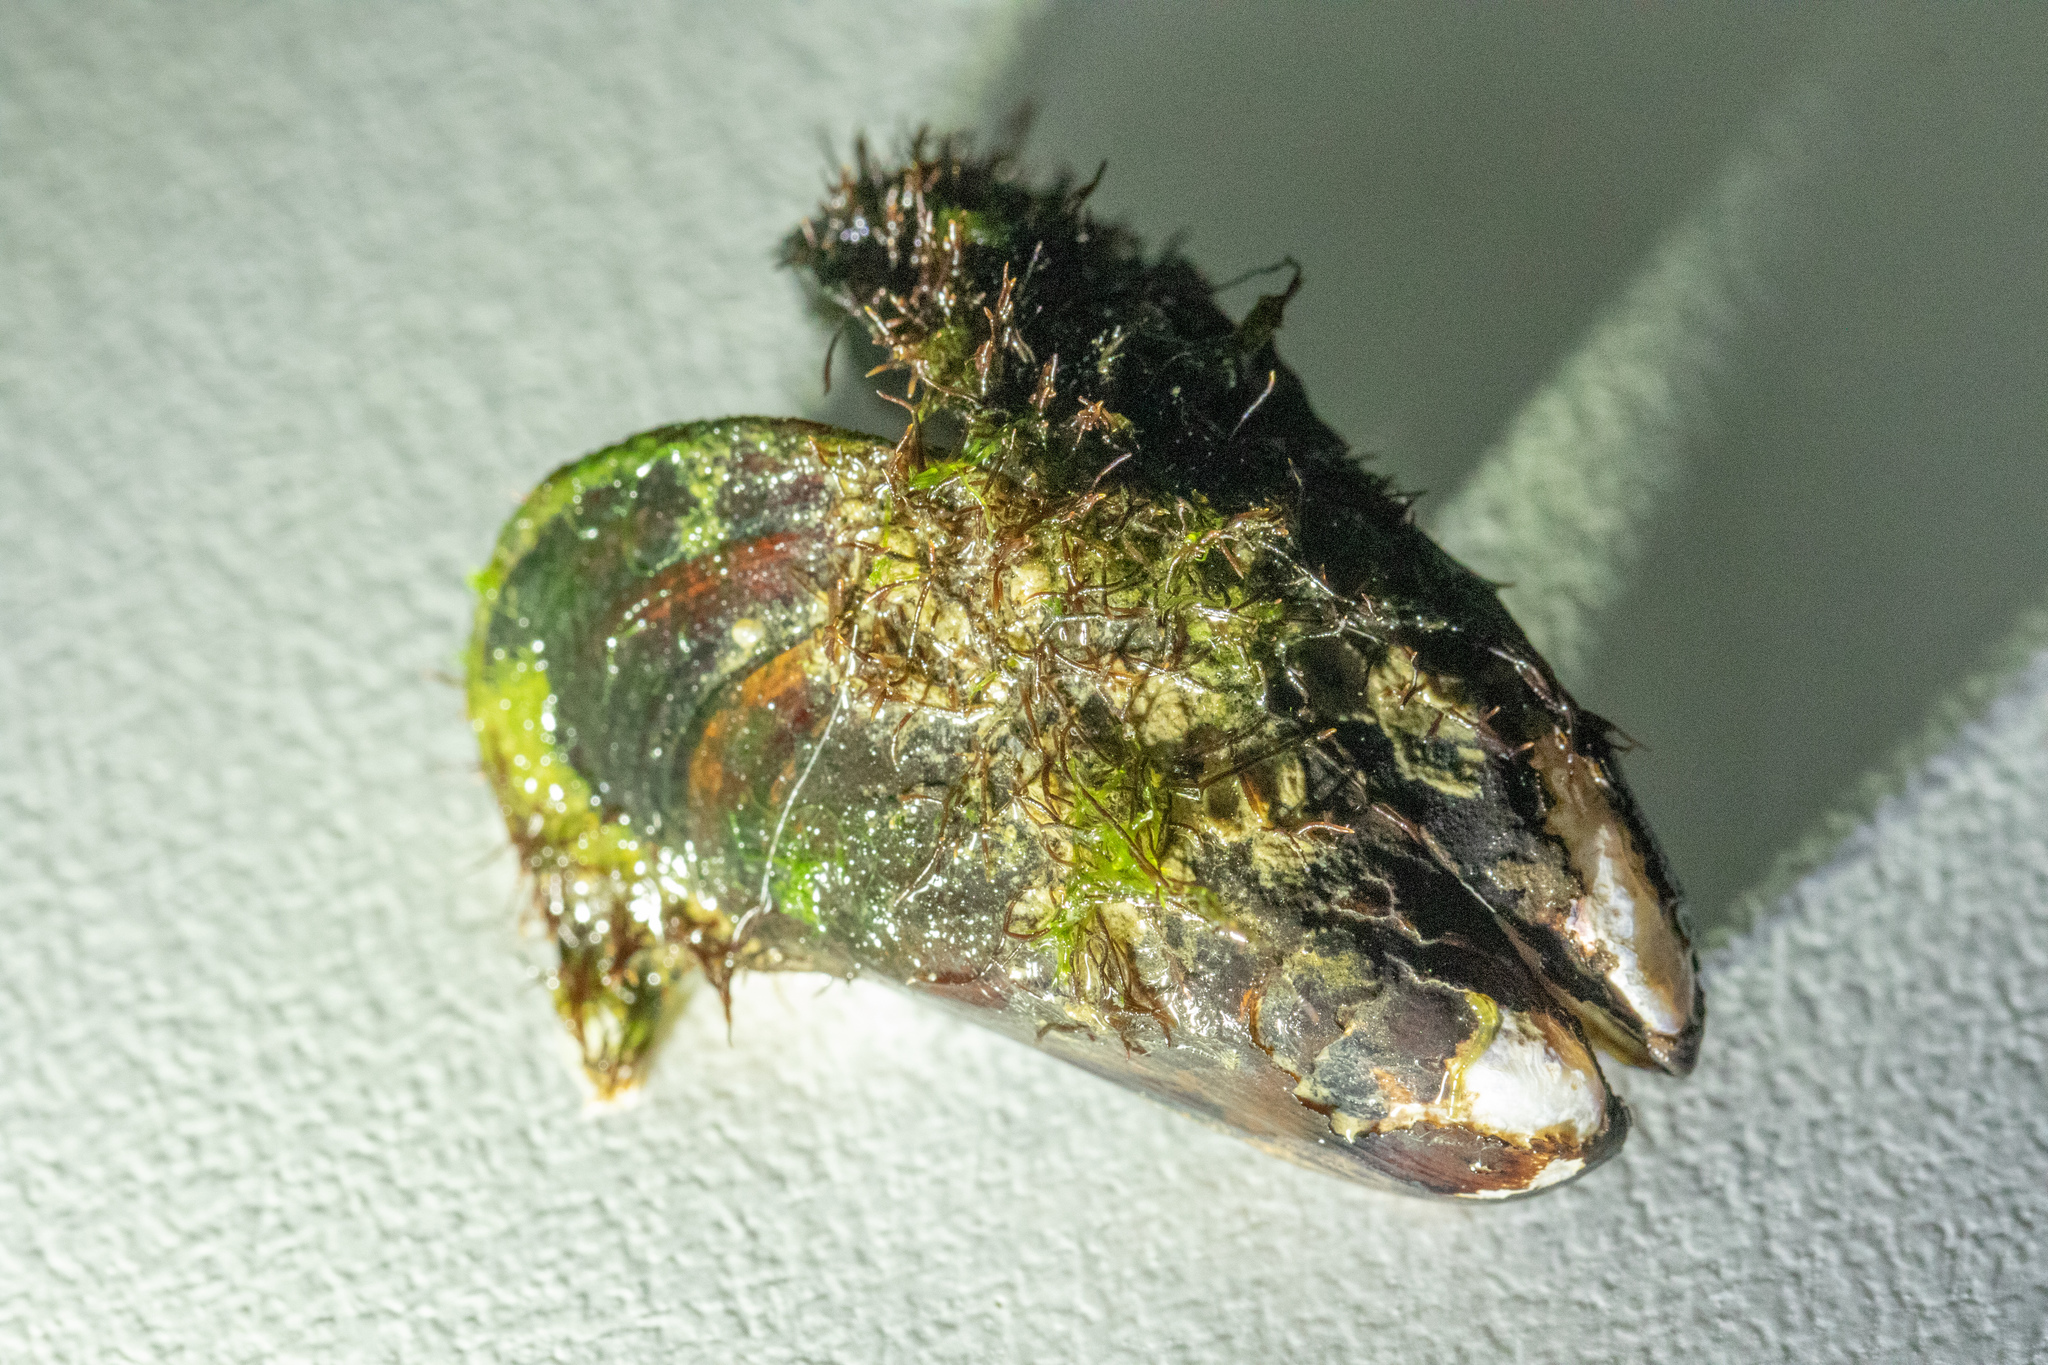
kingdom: Animalia
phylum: Mollusca
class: Bivalvia
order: Mytilida
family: Mytilidae
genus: Perna
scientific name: Perna canaliculus
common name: New zealand greenshelltm
